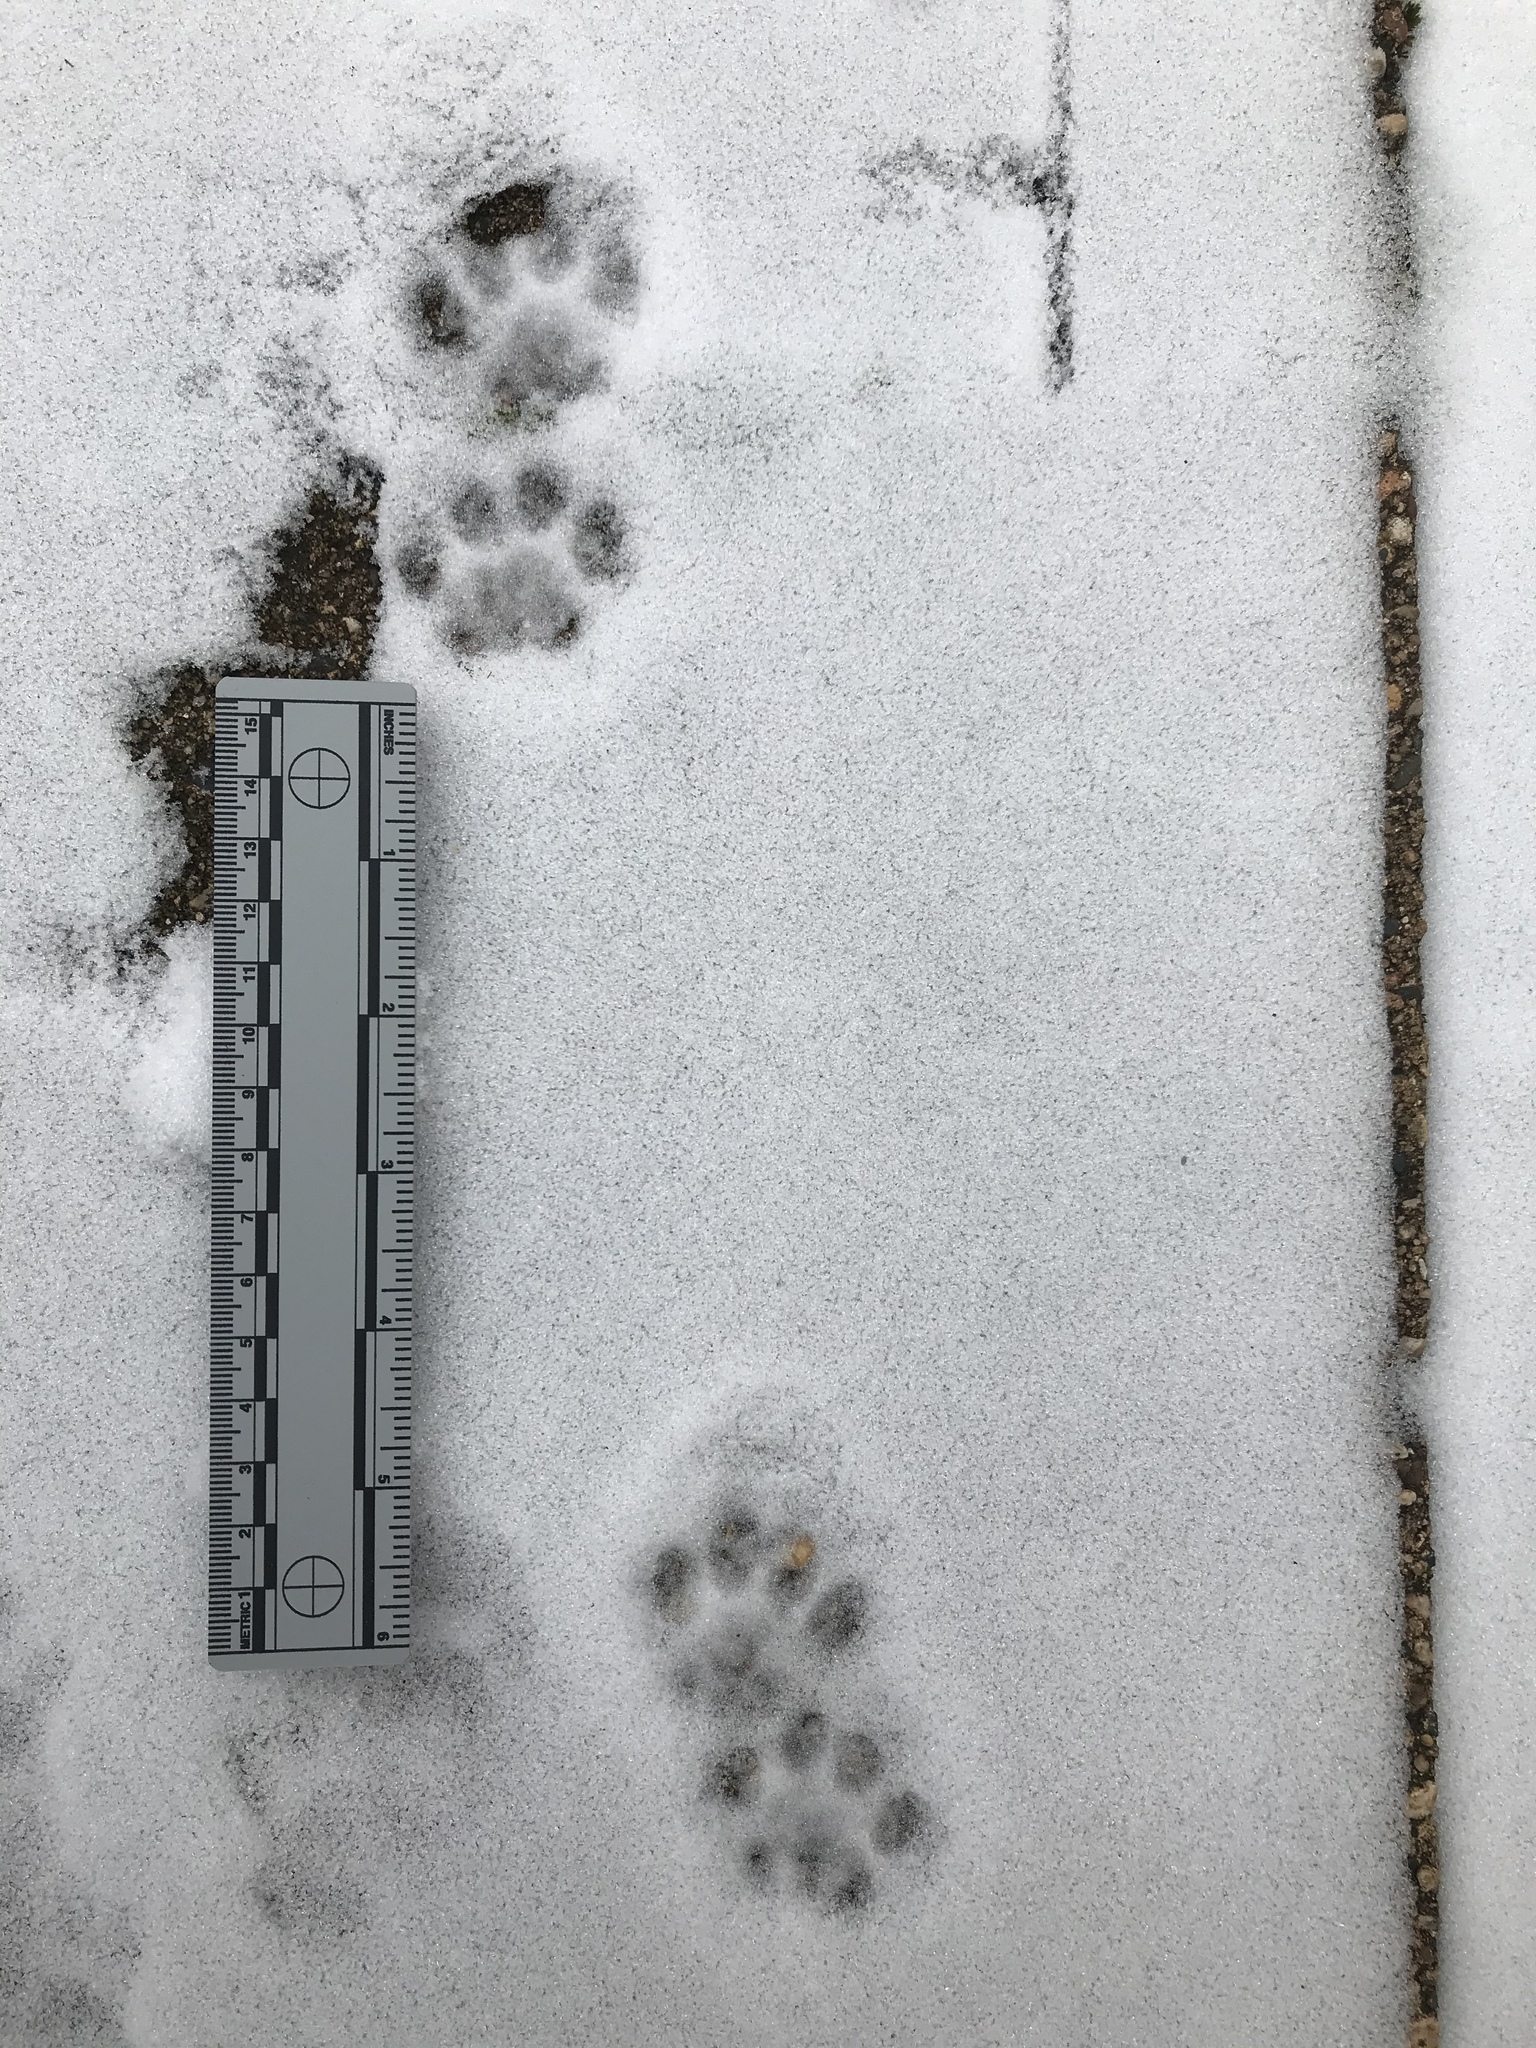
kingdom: Animalia
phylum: Chordata
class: Mammalia
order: Carnivora
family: Felidae
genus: Felis
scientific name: Felis catus
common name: Domestic cat
